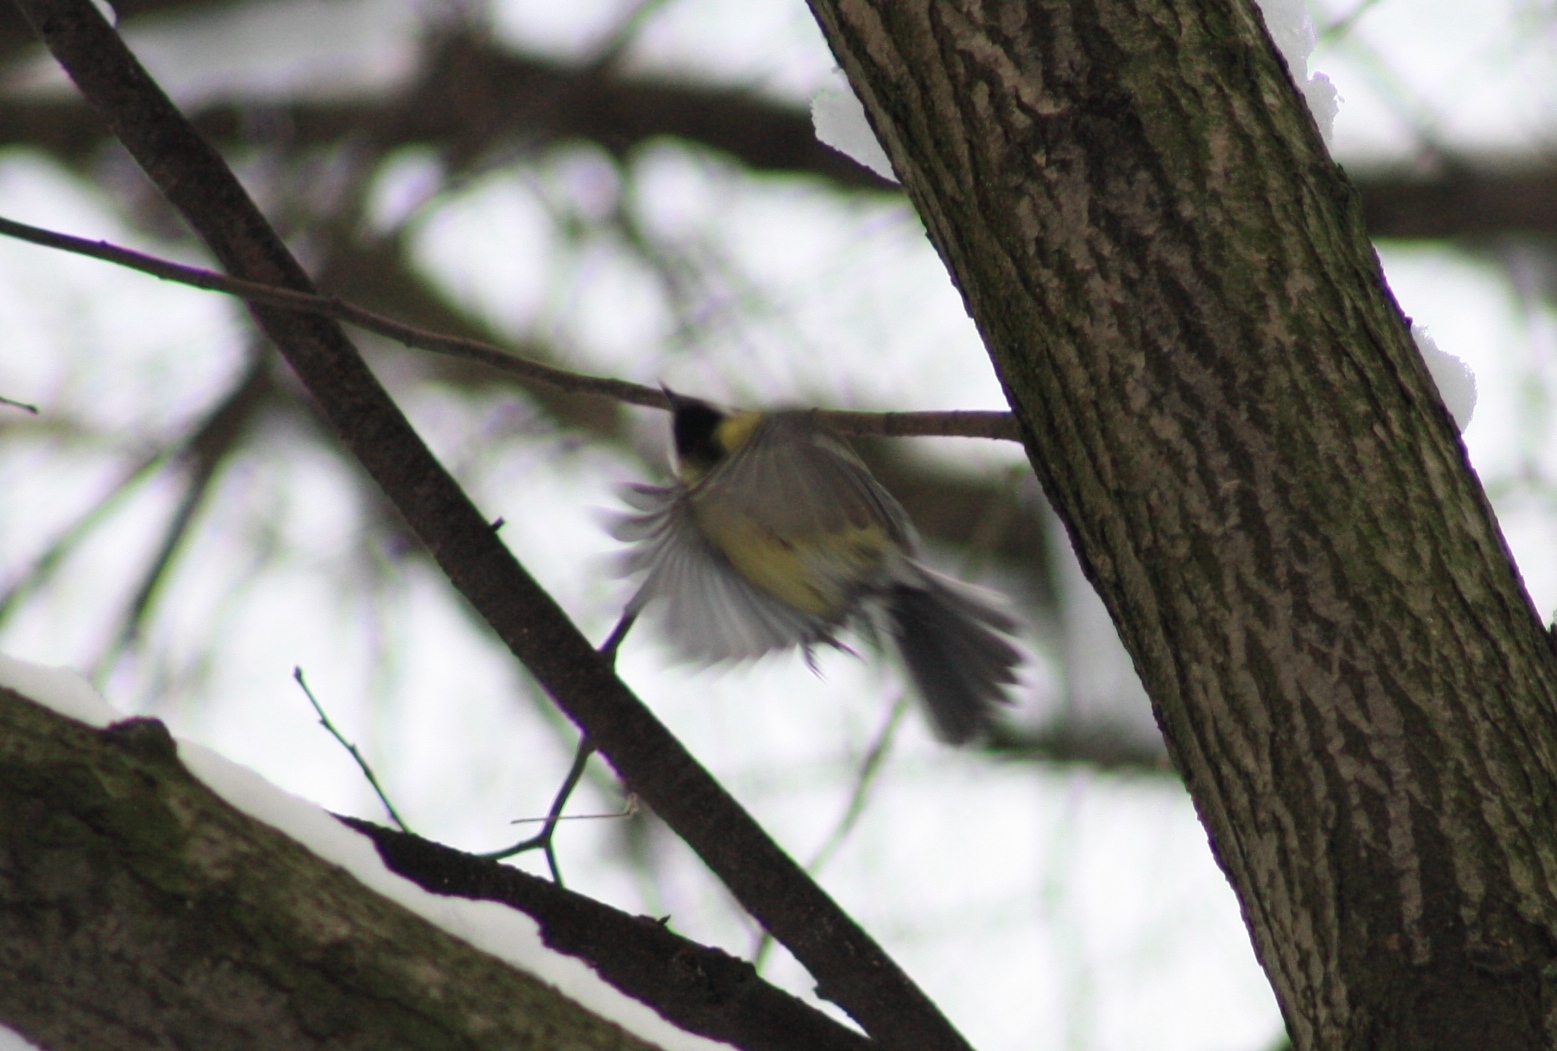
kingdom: Animalia
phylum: Chordata
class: Aves
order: Passeriformes
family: Paridae
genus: Parus
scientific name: Parus major
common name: Great tit
